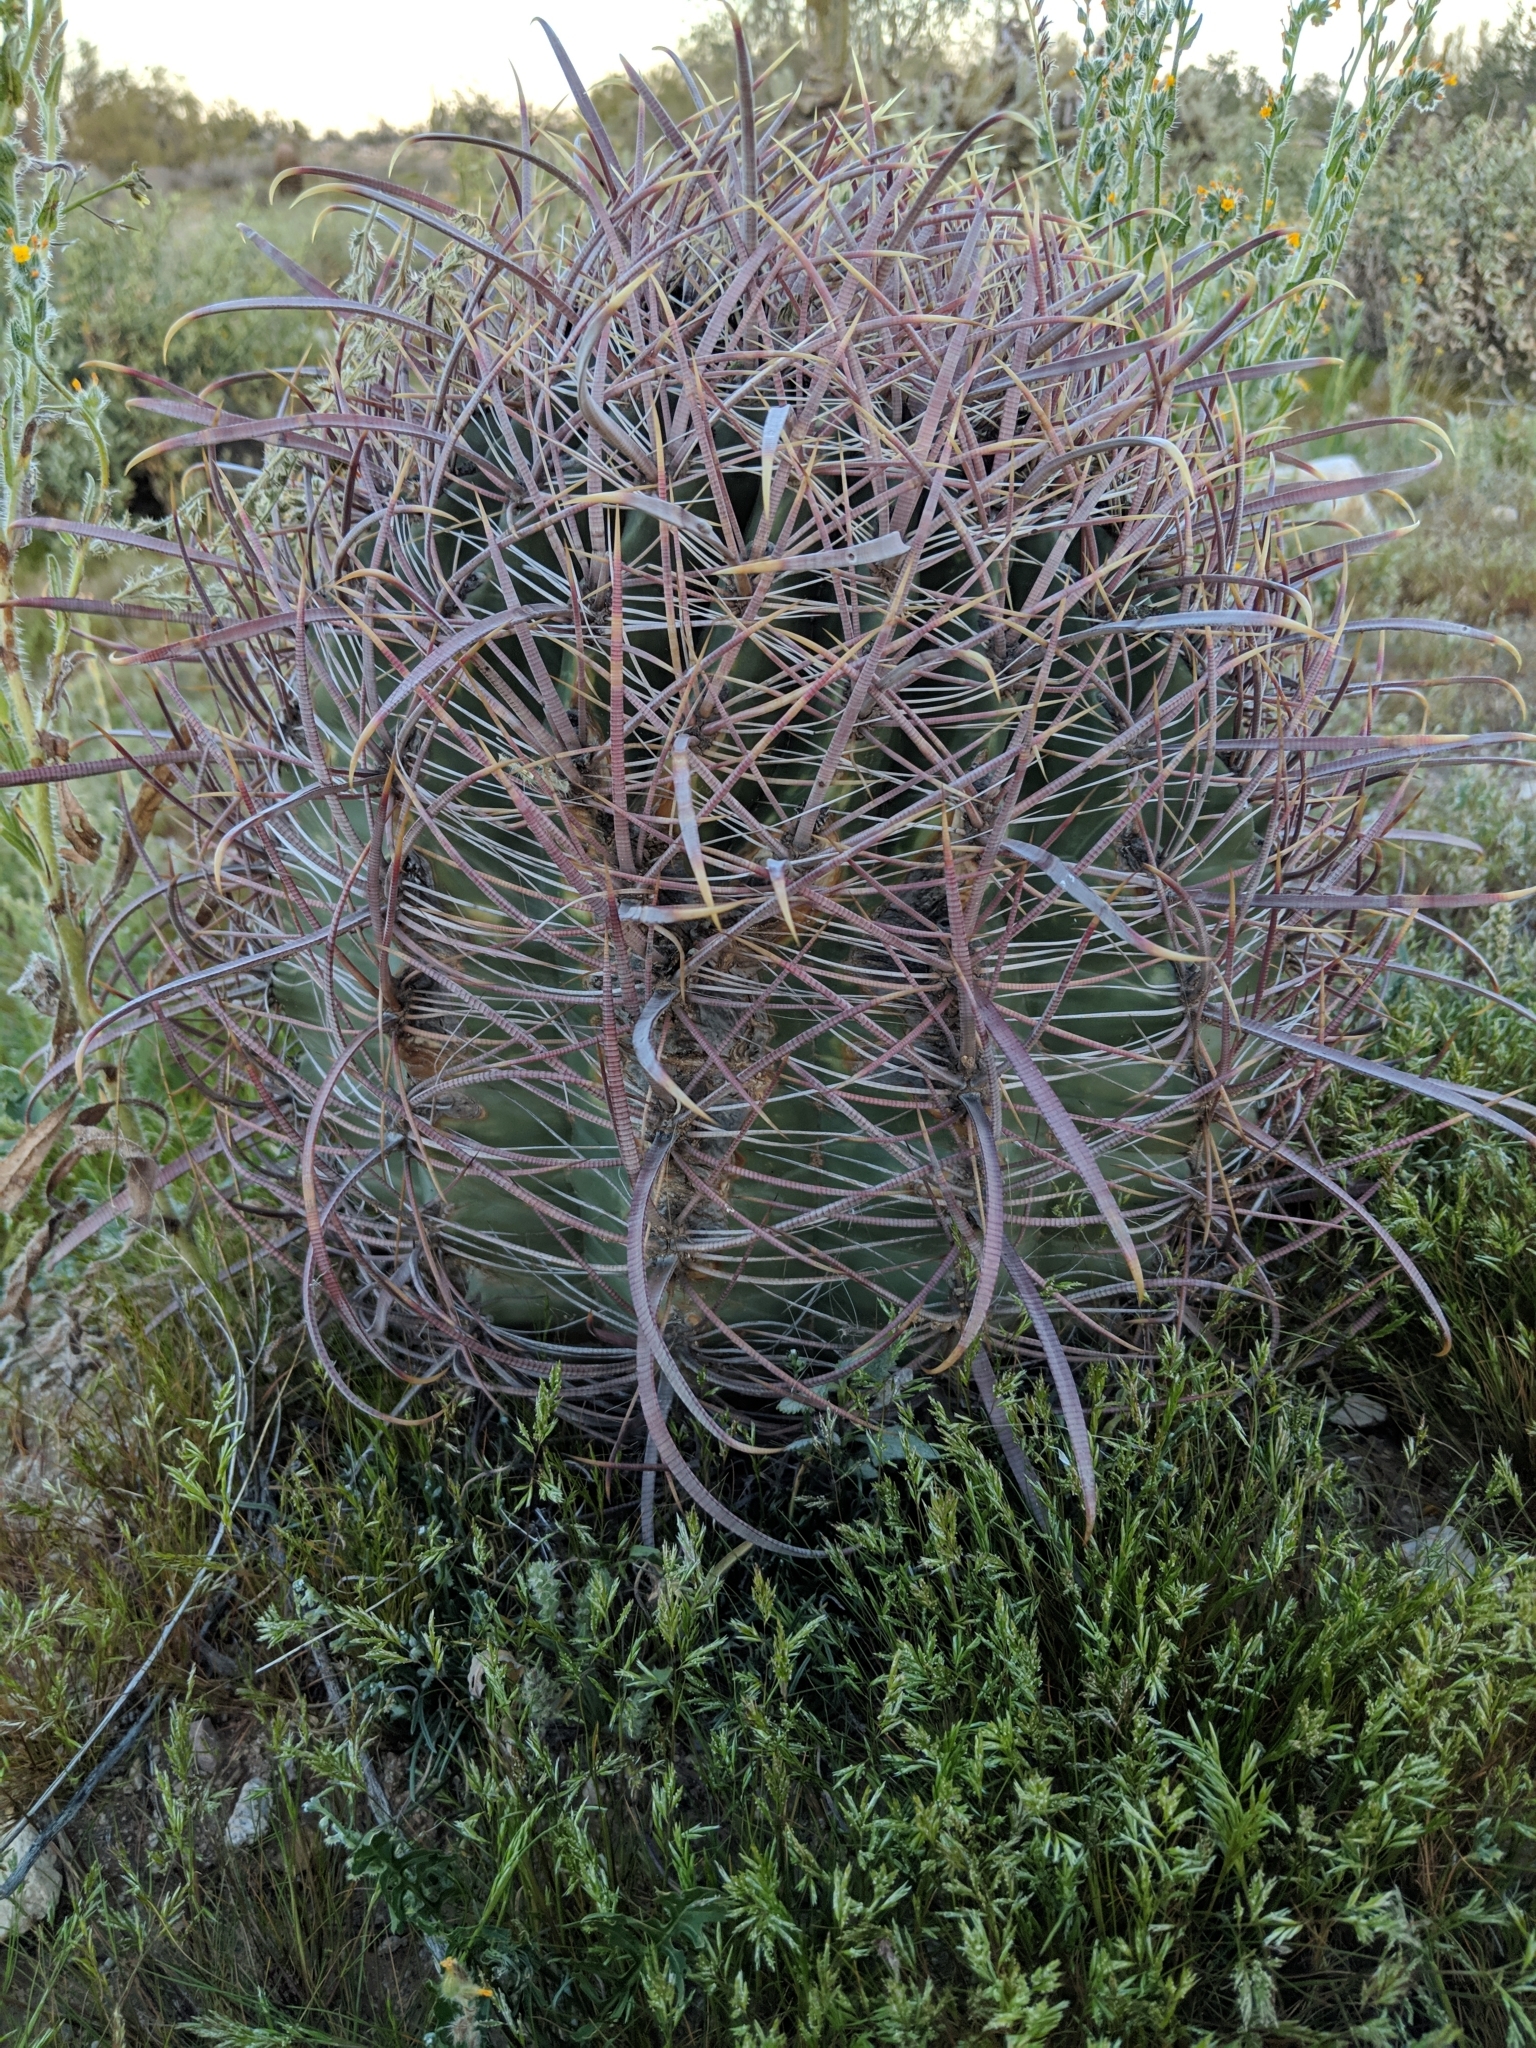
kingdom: Plantae
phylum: Tracheophyta
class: Magnoliopsida
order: Caryophyllales
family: Cactaceae
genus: Ferocactus
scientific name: Ferocactus cylindraceus
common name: California barrel cactus
